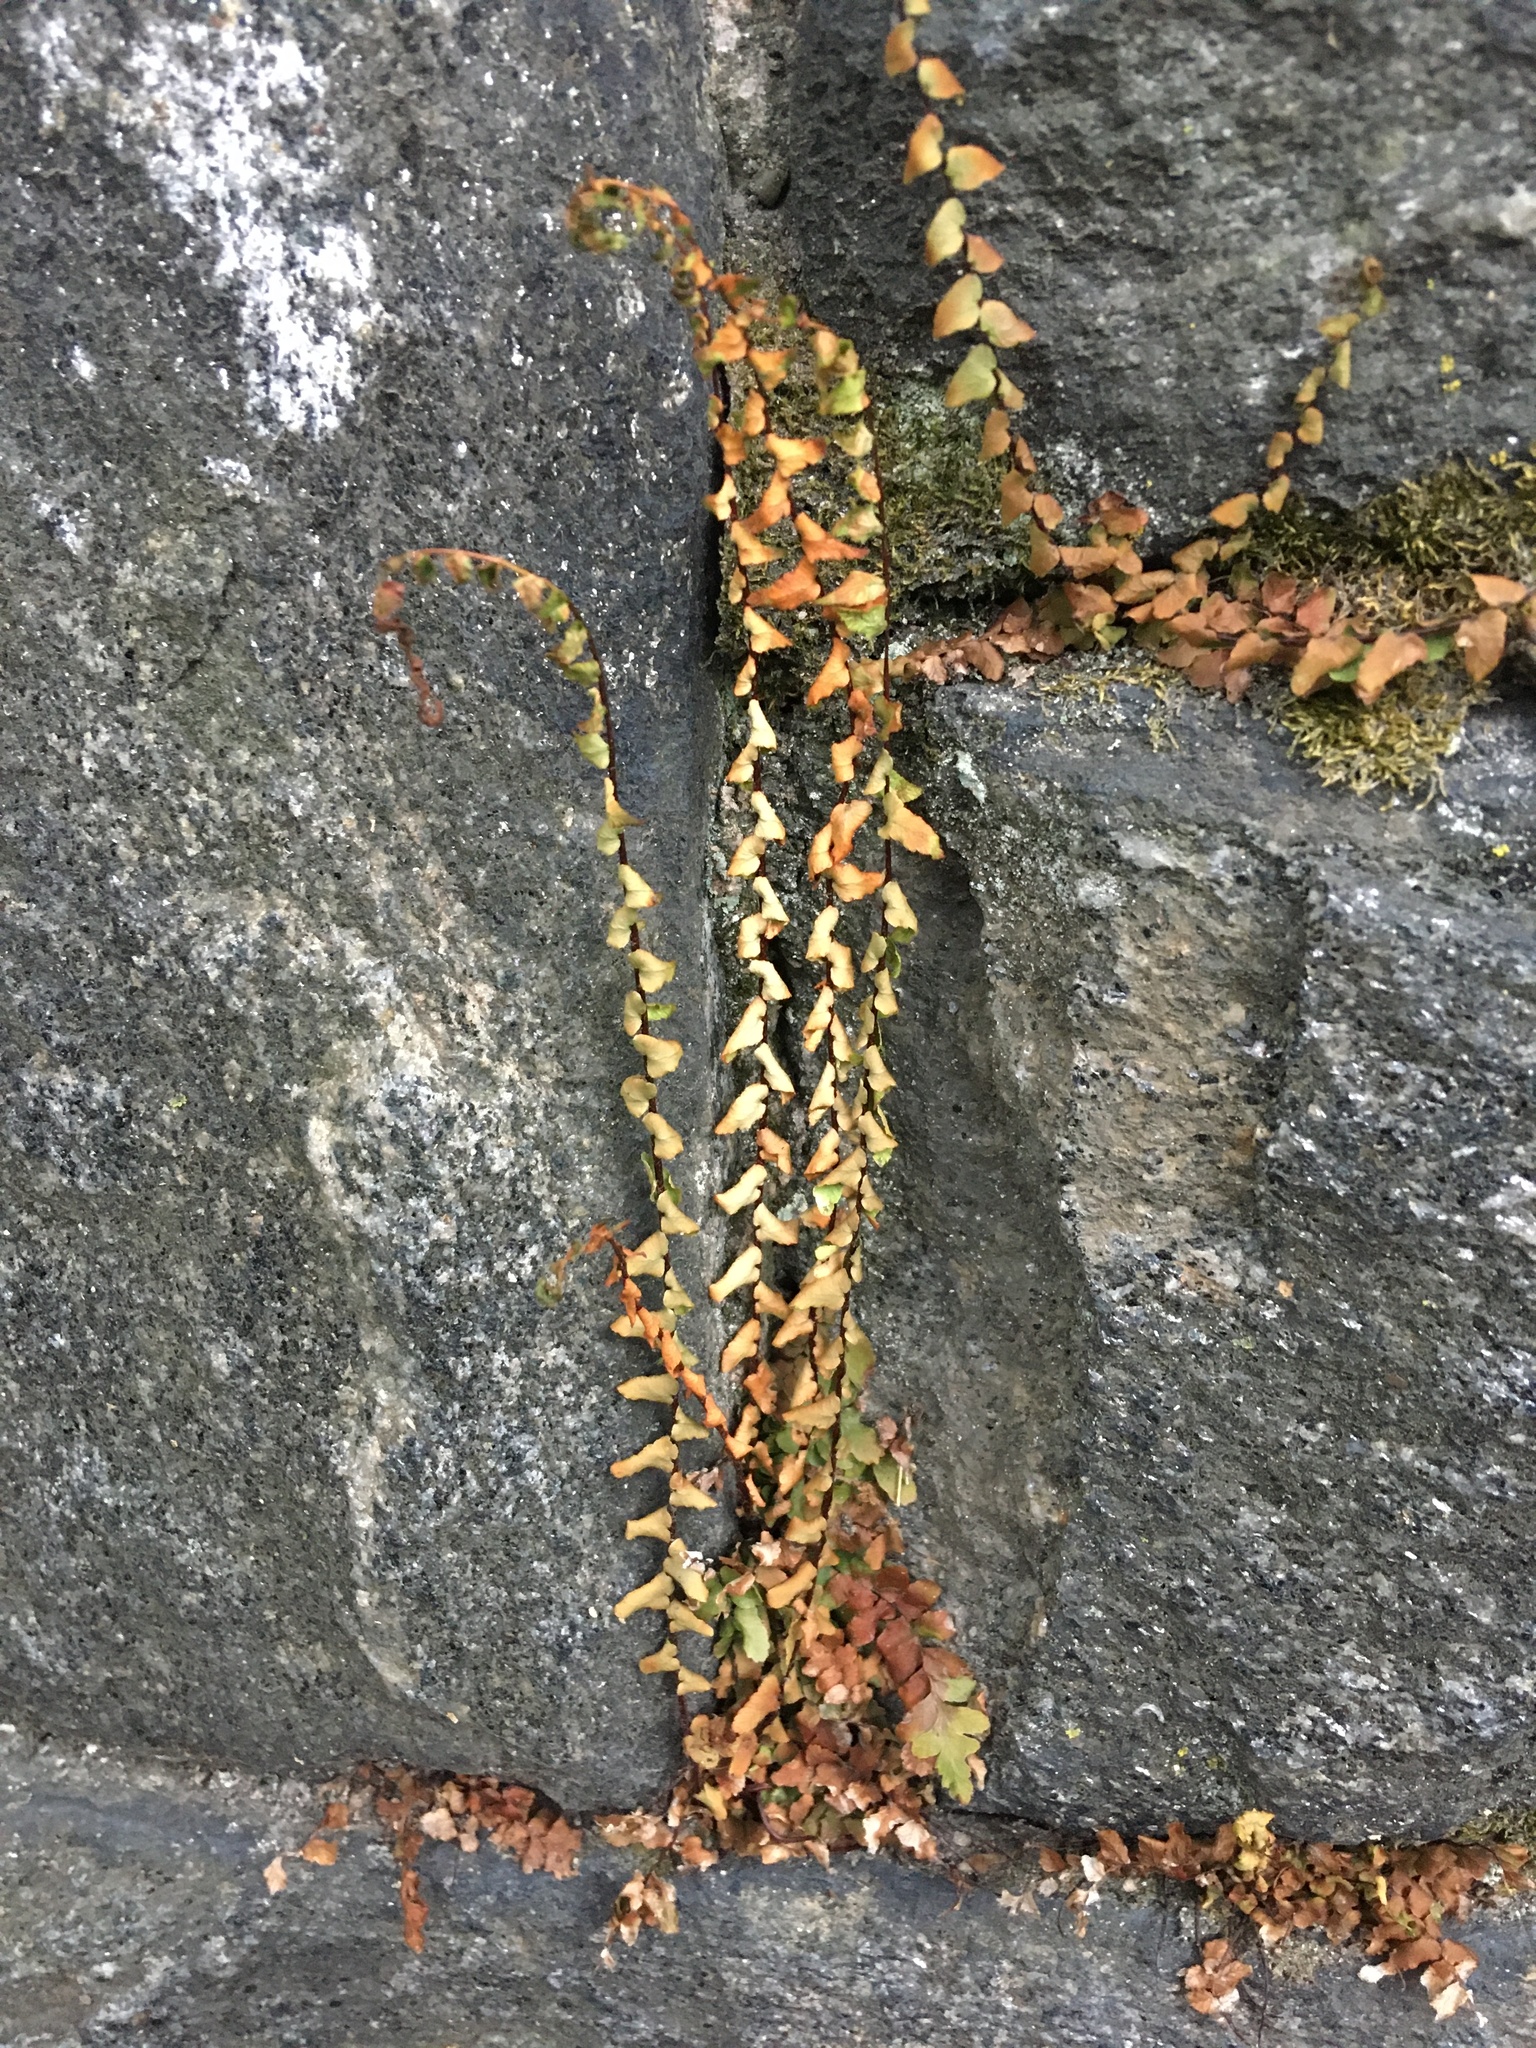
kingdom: Plantae
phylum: Tracheophyta
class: Polypodiopsida
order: Polypodiales
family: Aspleniaceae
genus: Asplenium
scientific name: Asplenium platyneuron
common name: Ebony spleenwort
